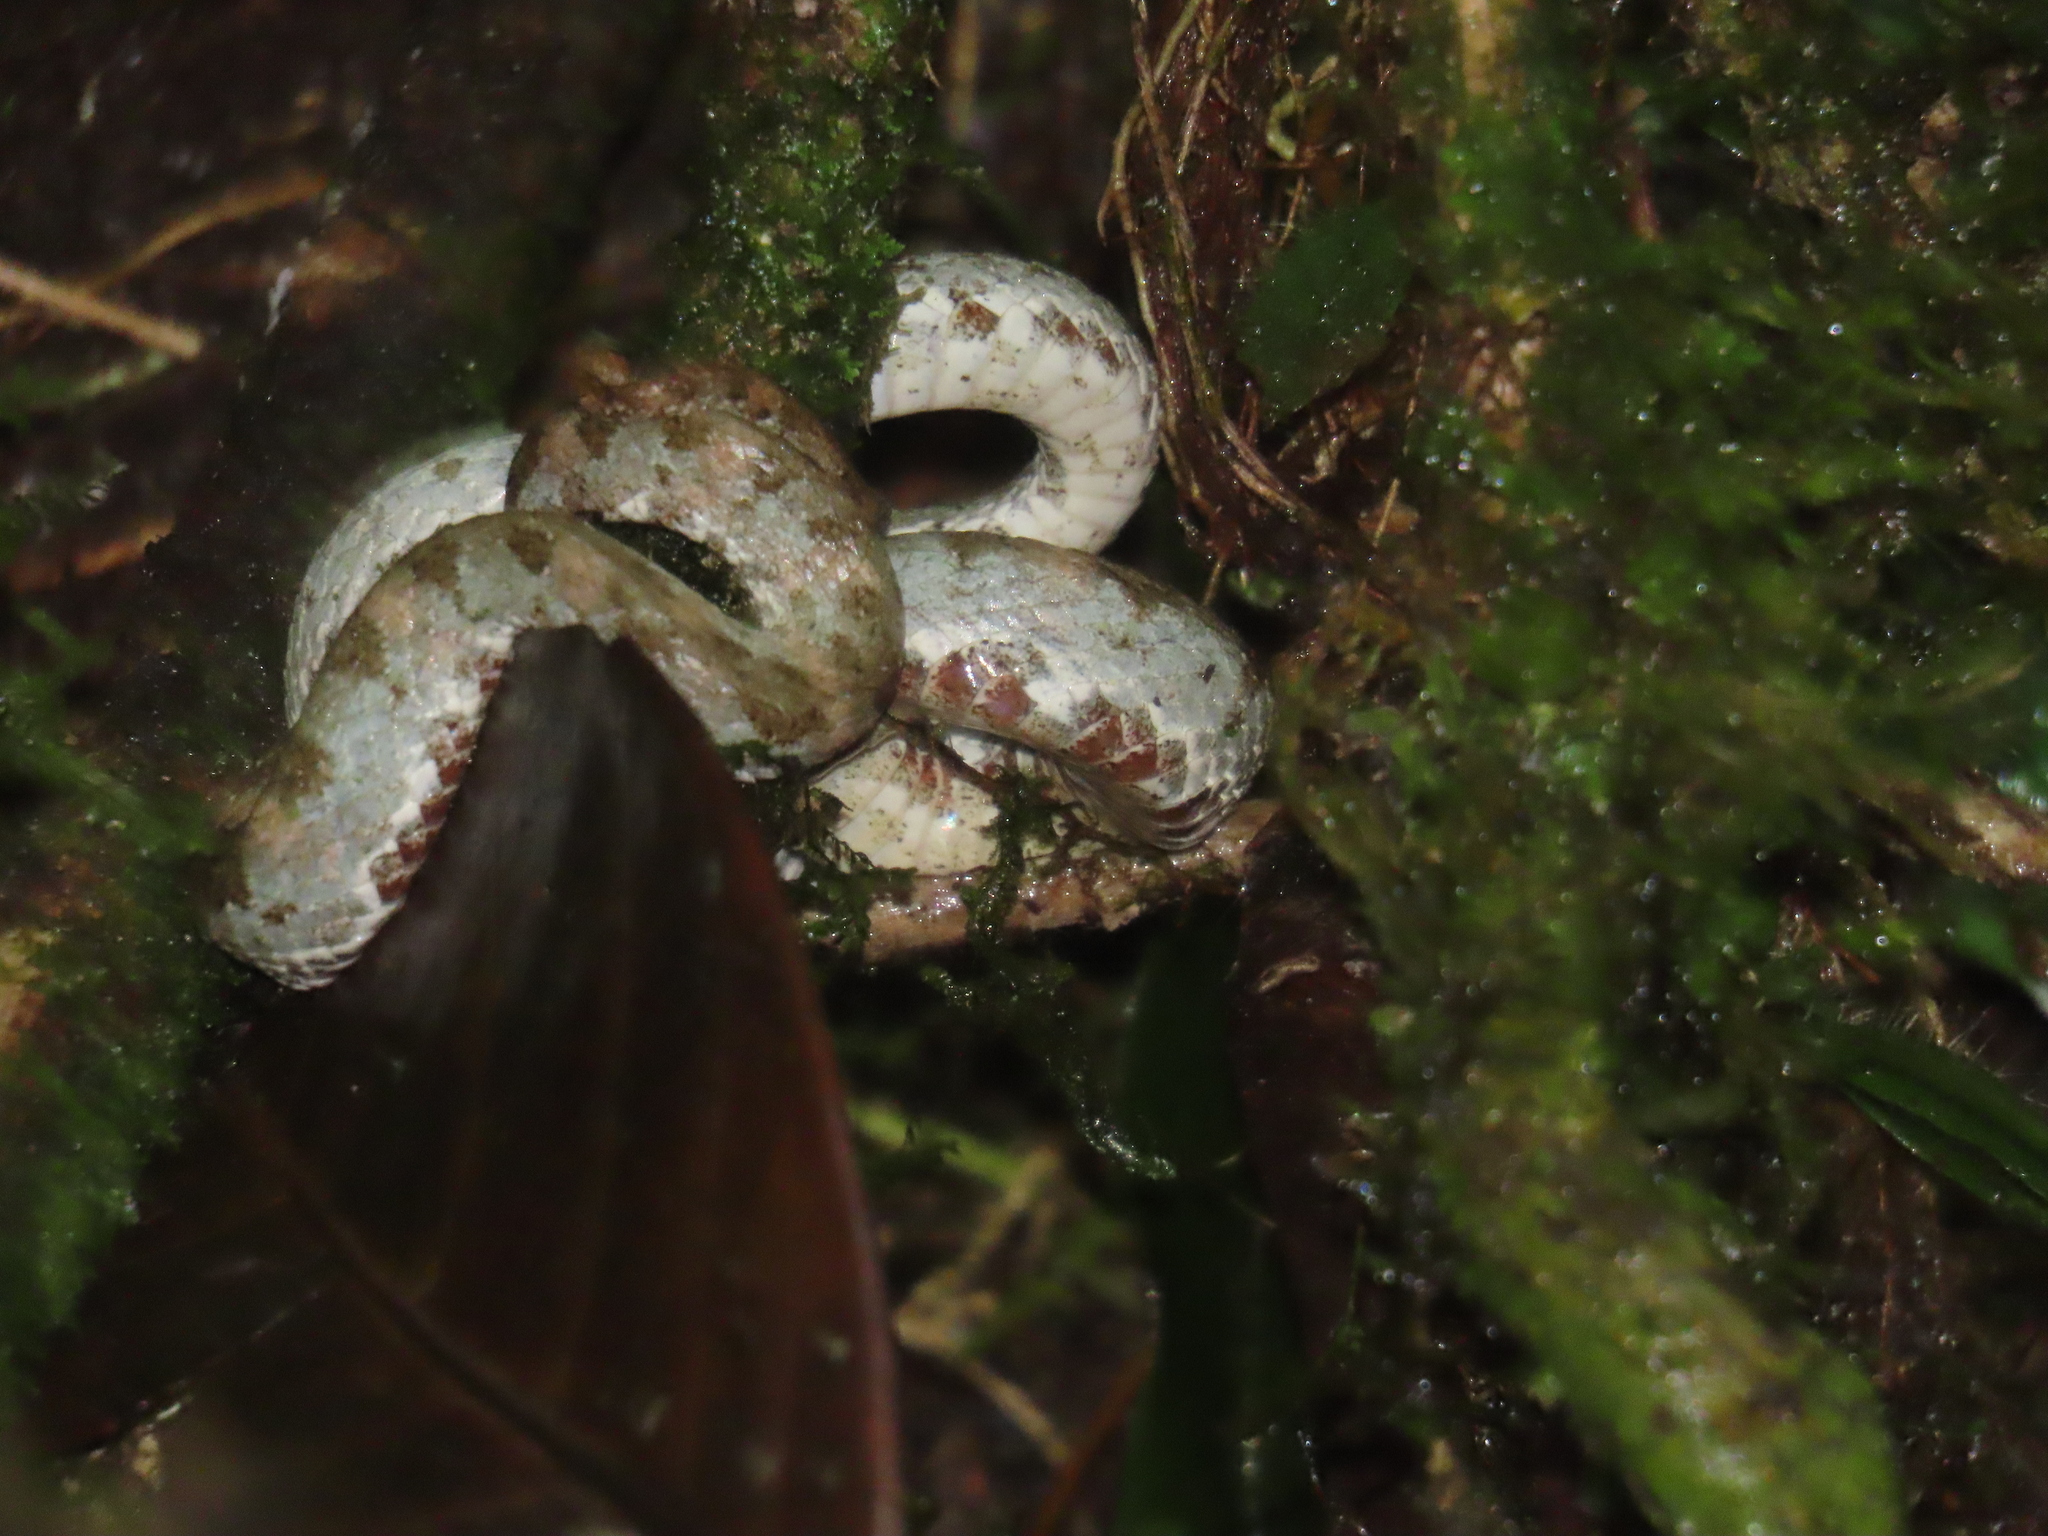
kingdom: Animalia
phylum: Chordata
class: Squamata
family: Viperidae
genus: Bothriechis
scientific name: Bothriechis schlegelii
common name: Eyelash viper
